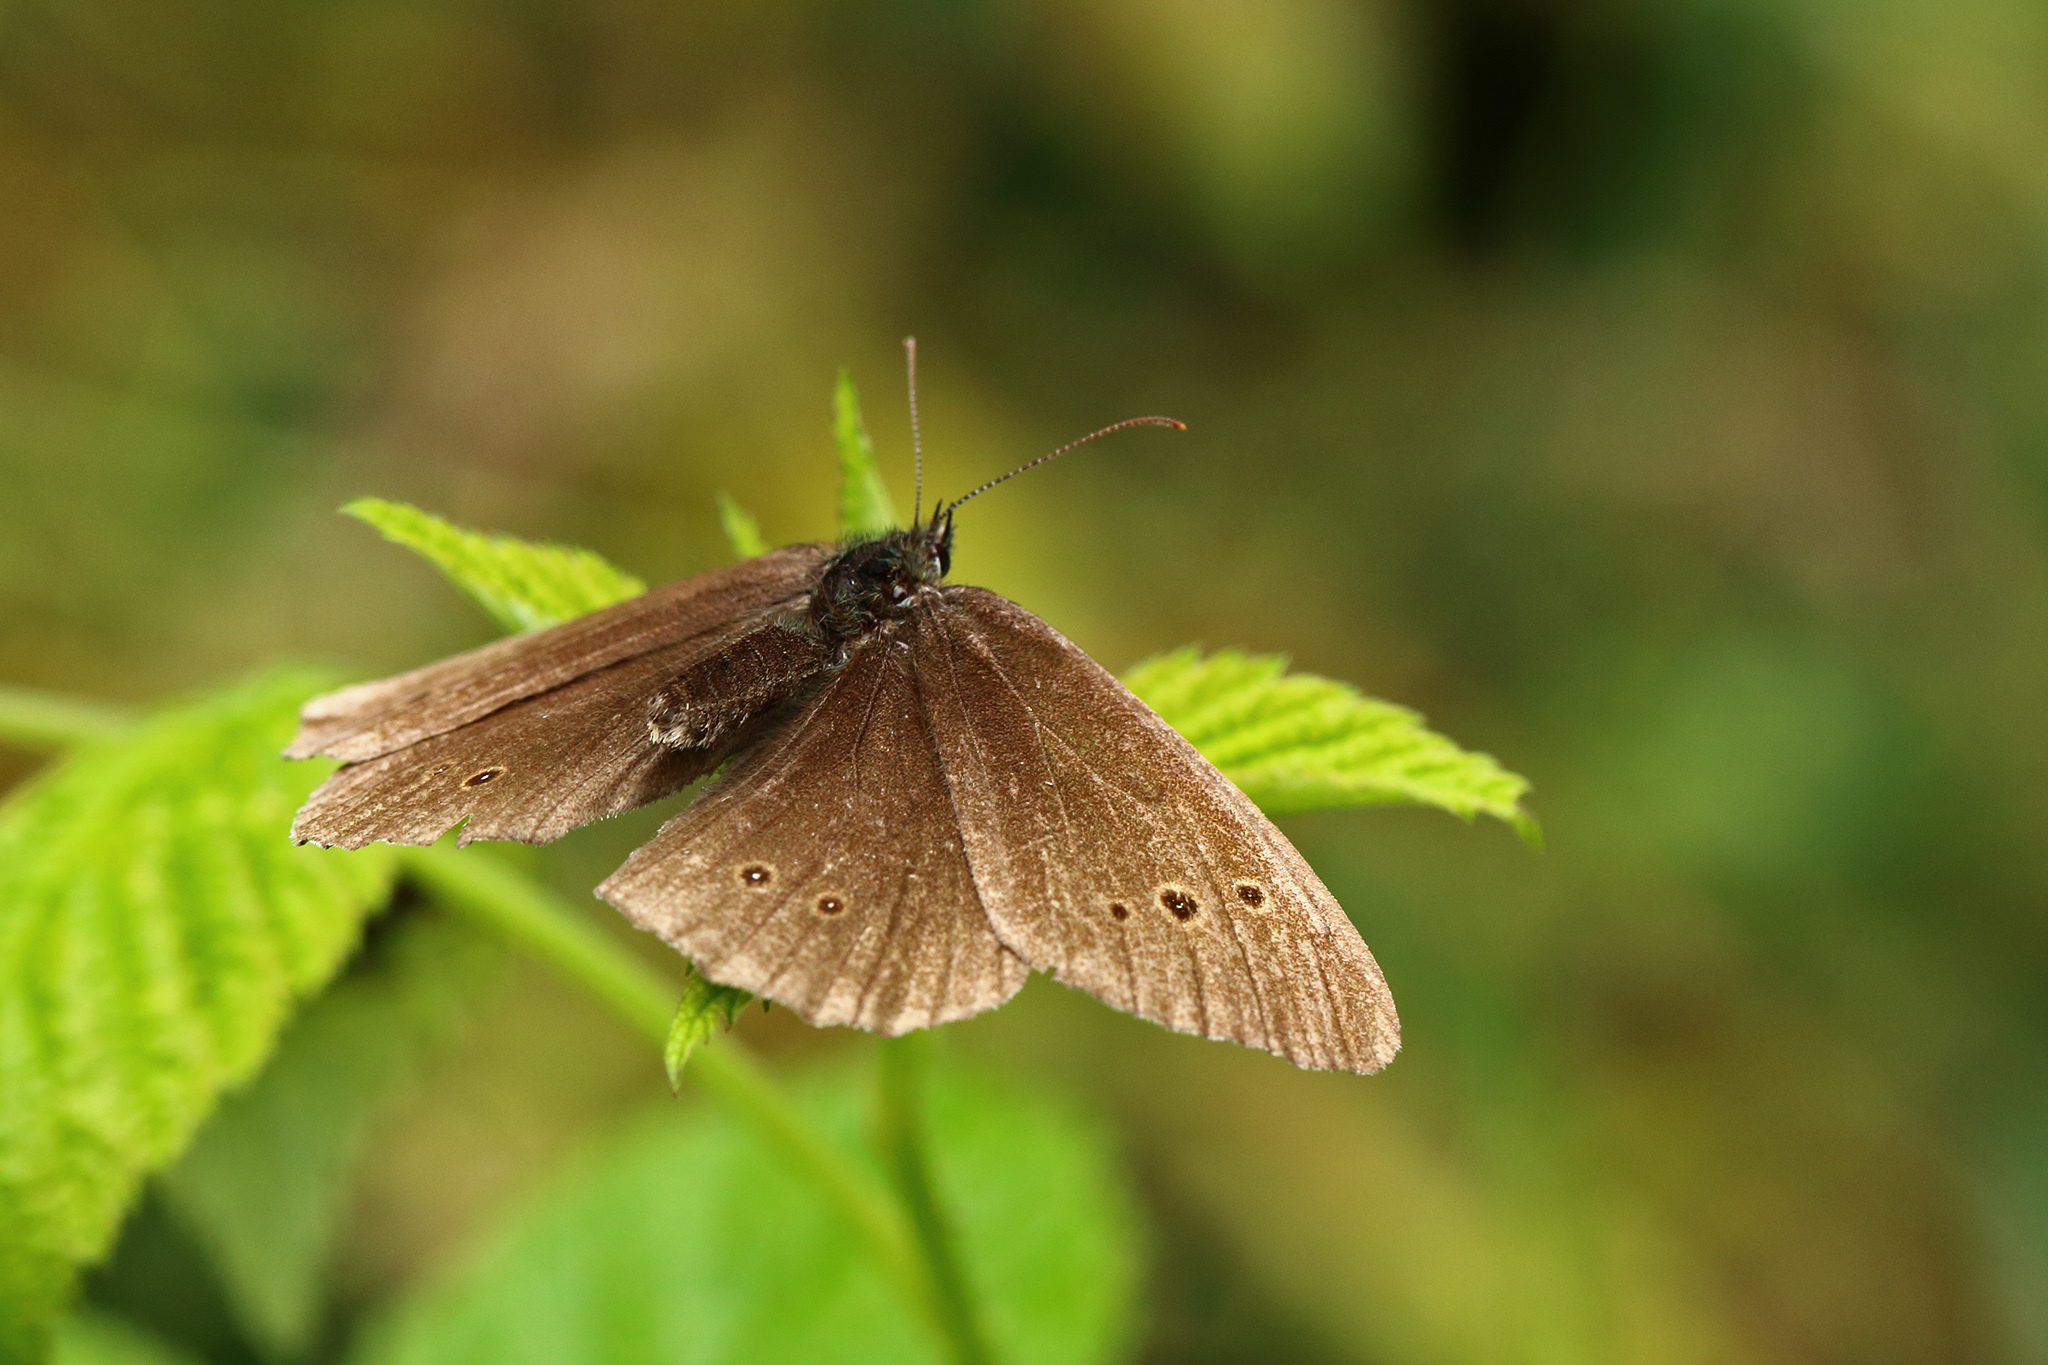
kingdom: Animalia
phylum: Arthropoda
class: Insecta
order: Lepidoptera
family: Nymphalidae
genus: Aphantopus
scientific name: Aphantopus hyperantus
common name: Ringlet
